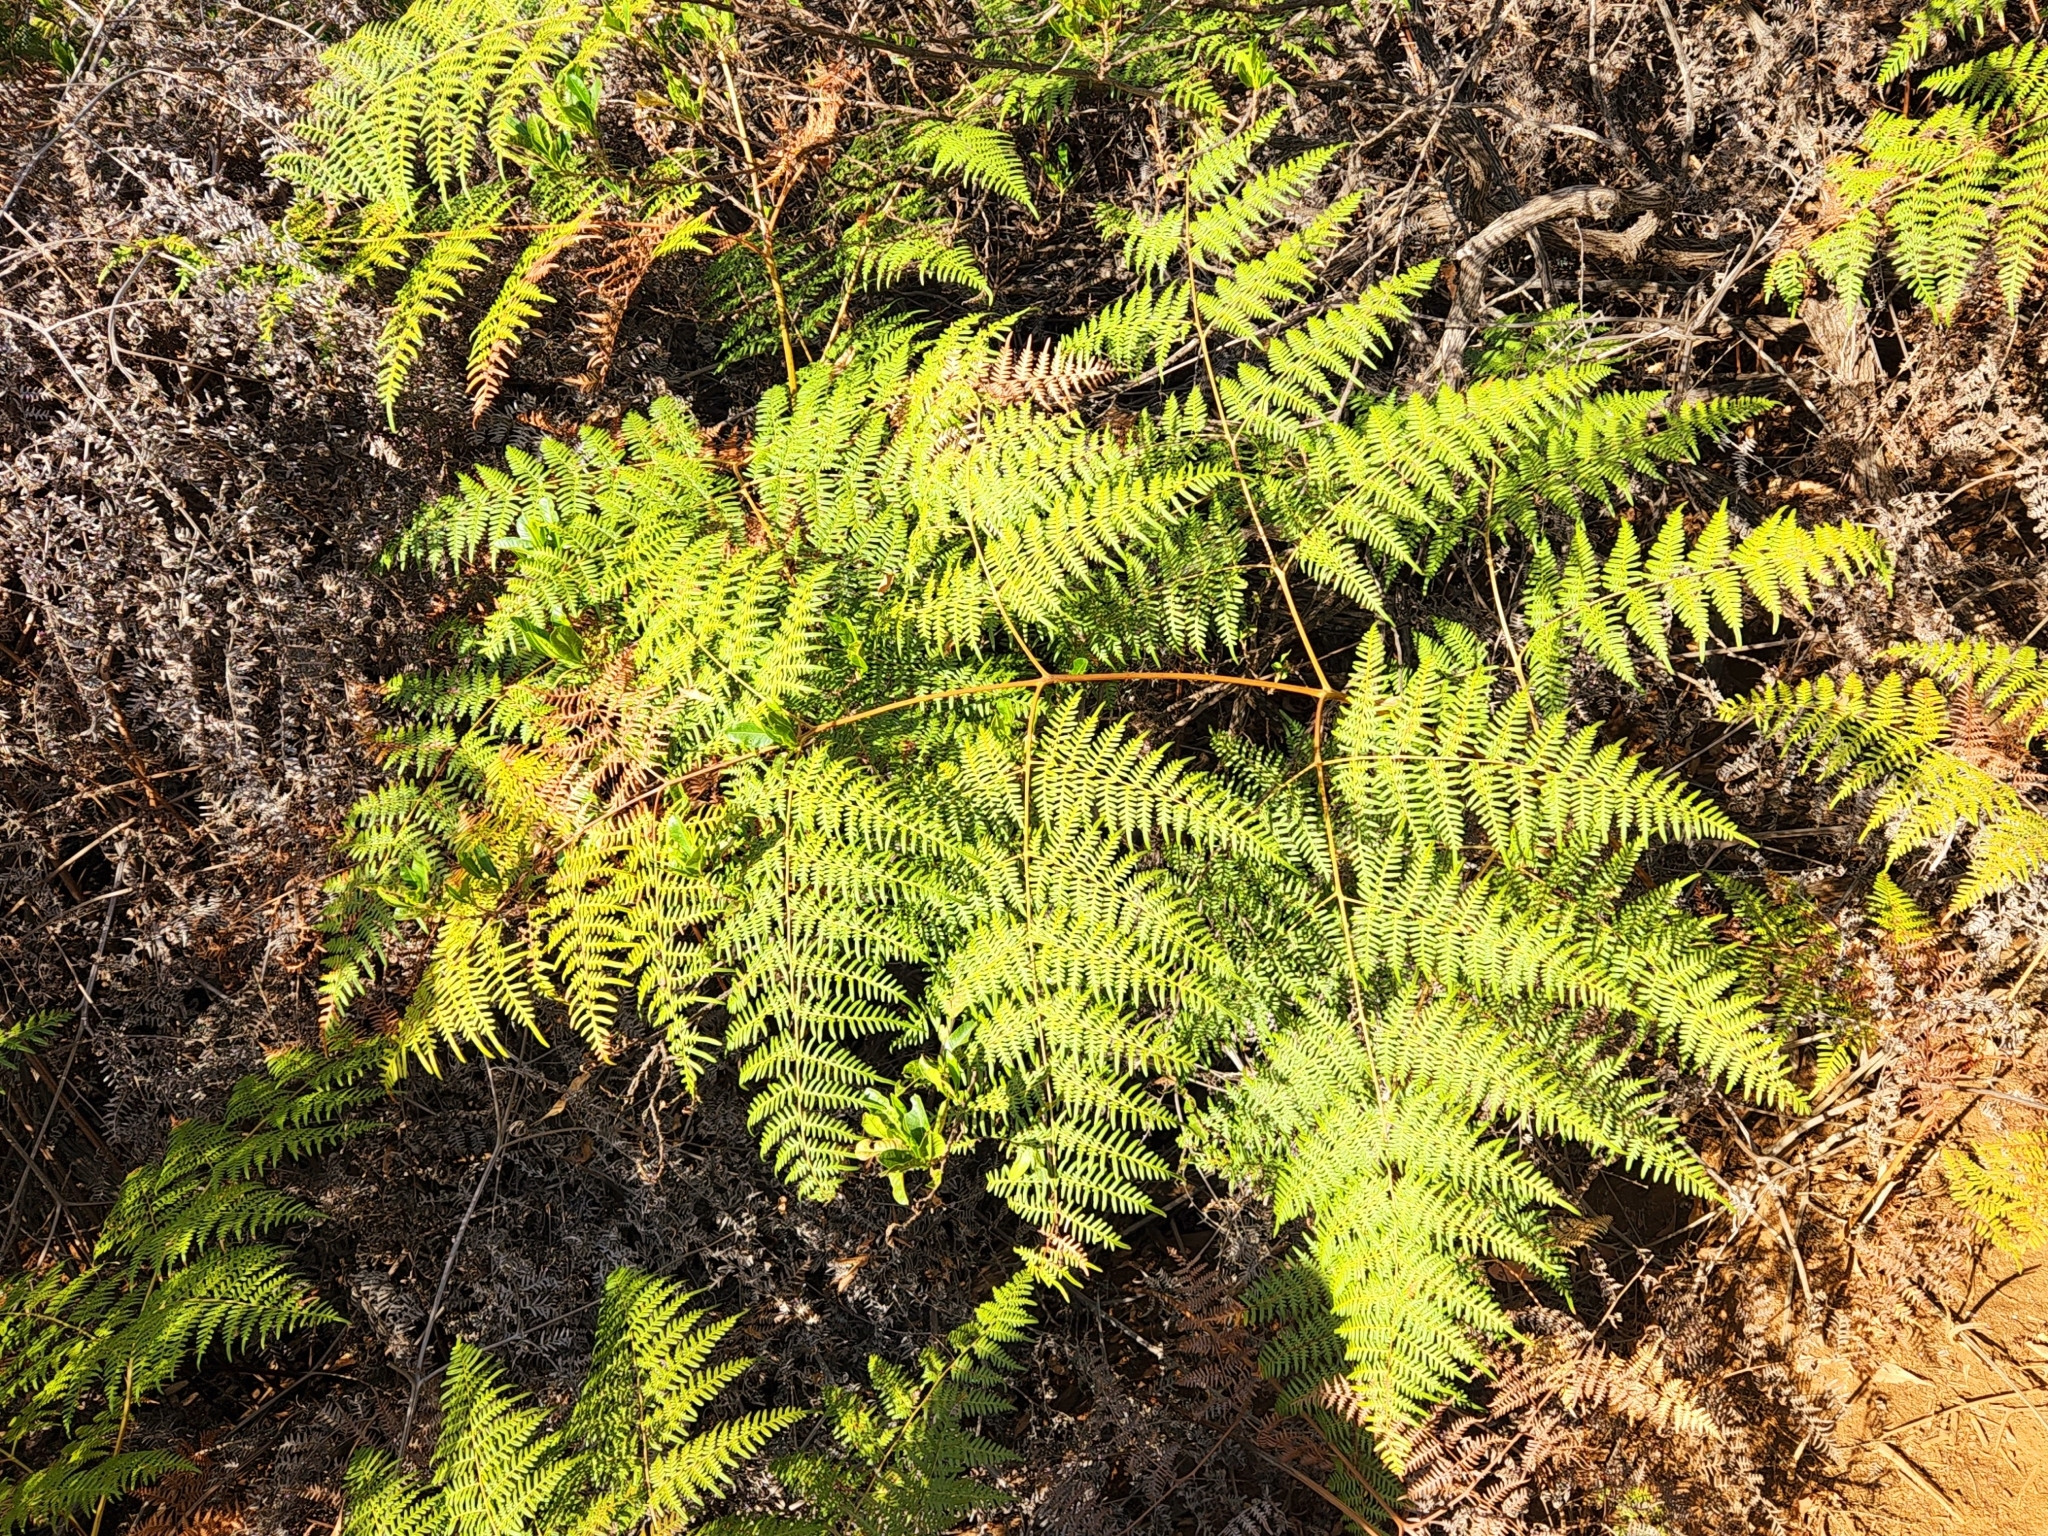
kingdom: Plantae
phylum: Tracheophyta
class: Polypodiopsida
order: Polypodiales
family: Dennstaedtiaceae
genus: Pteridium
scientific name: Pteridium esculentum
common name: Bracken fern
